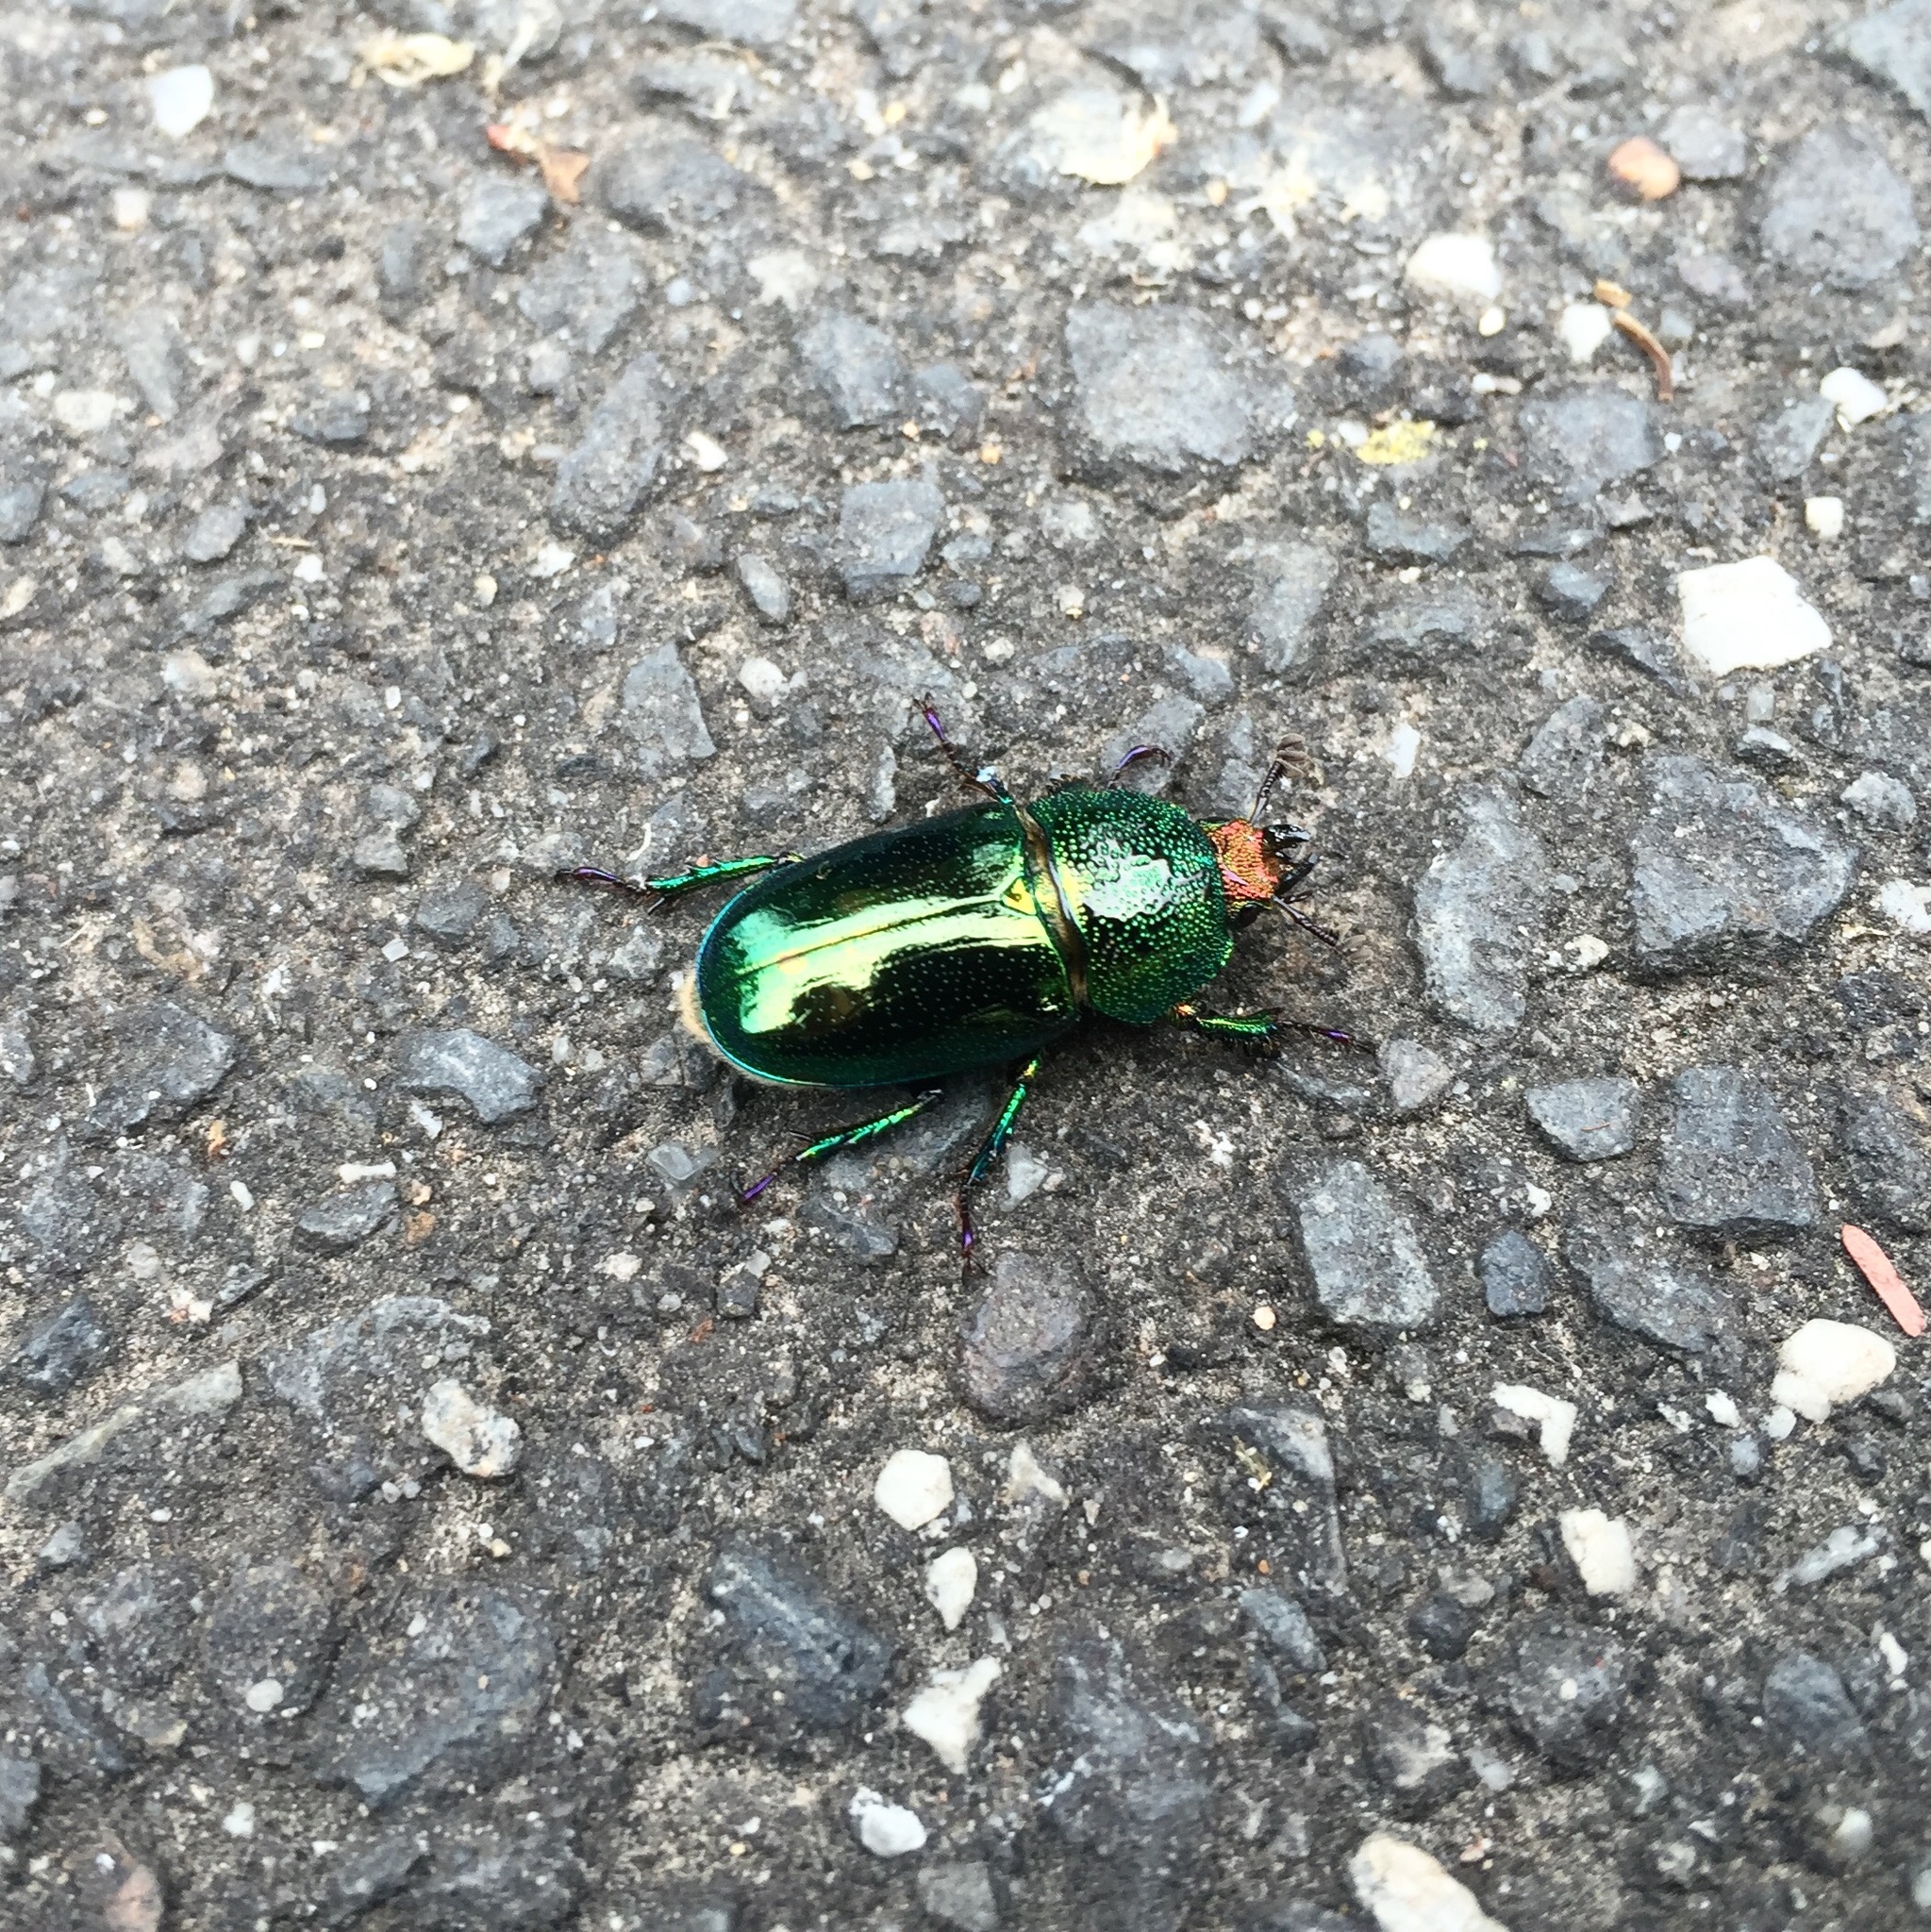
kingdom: Animalia
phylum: Arthropoda
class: Insecta
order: Coleoptera
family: Lucanidae
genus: Lamprima
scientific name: Lamprima aurata
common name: Golden stag beetle
